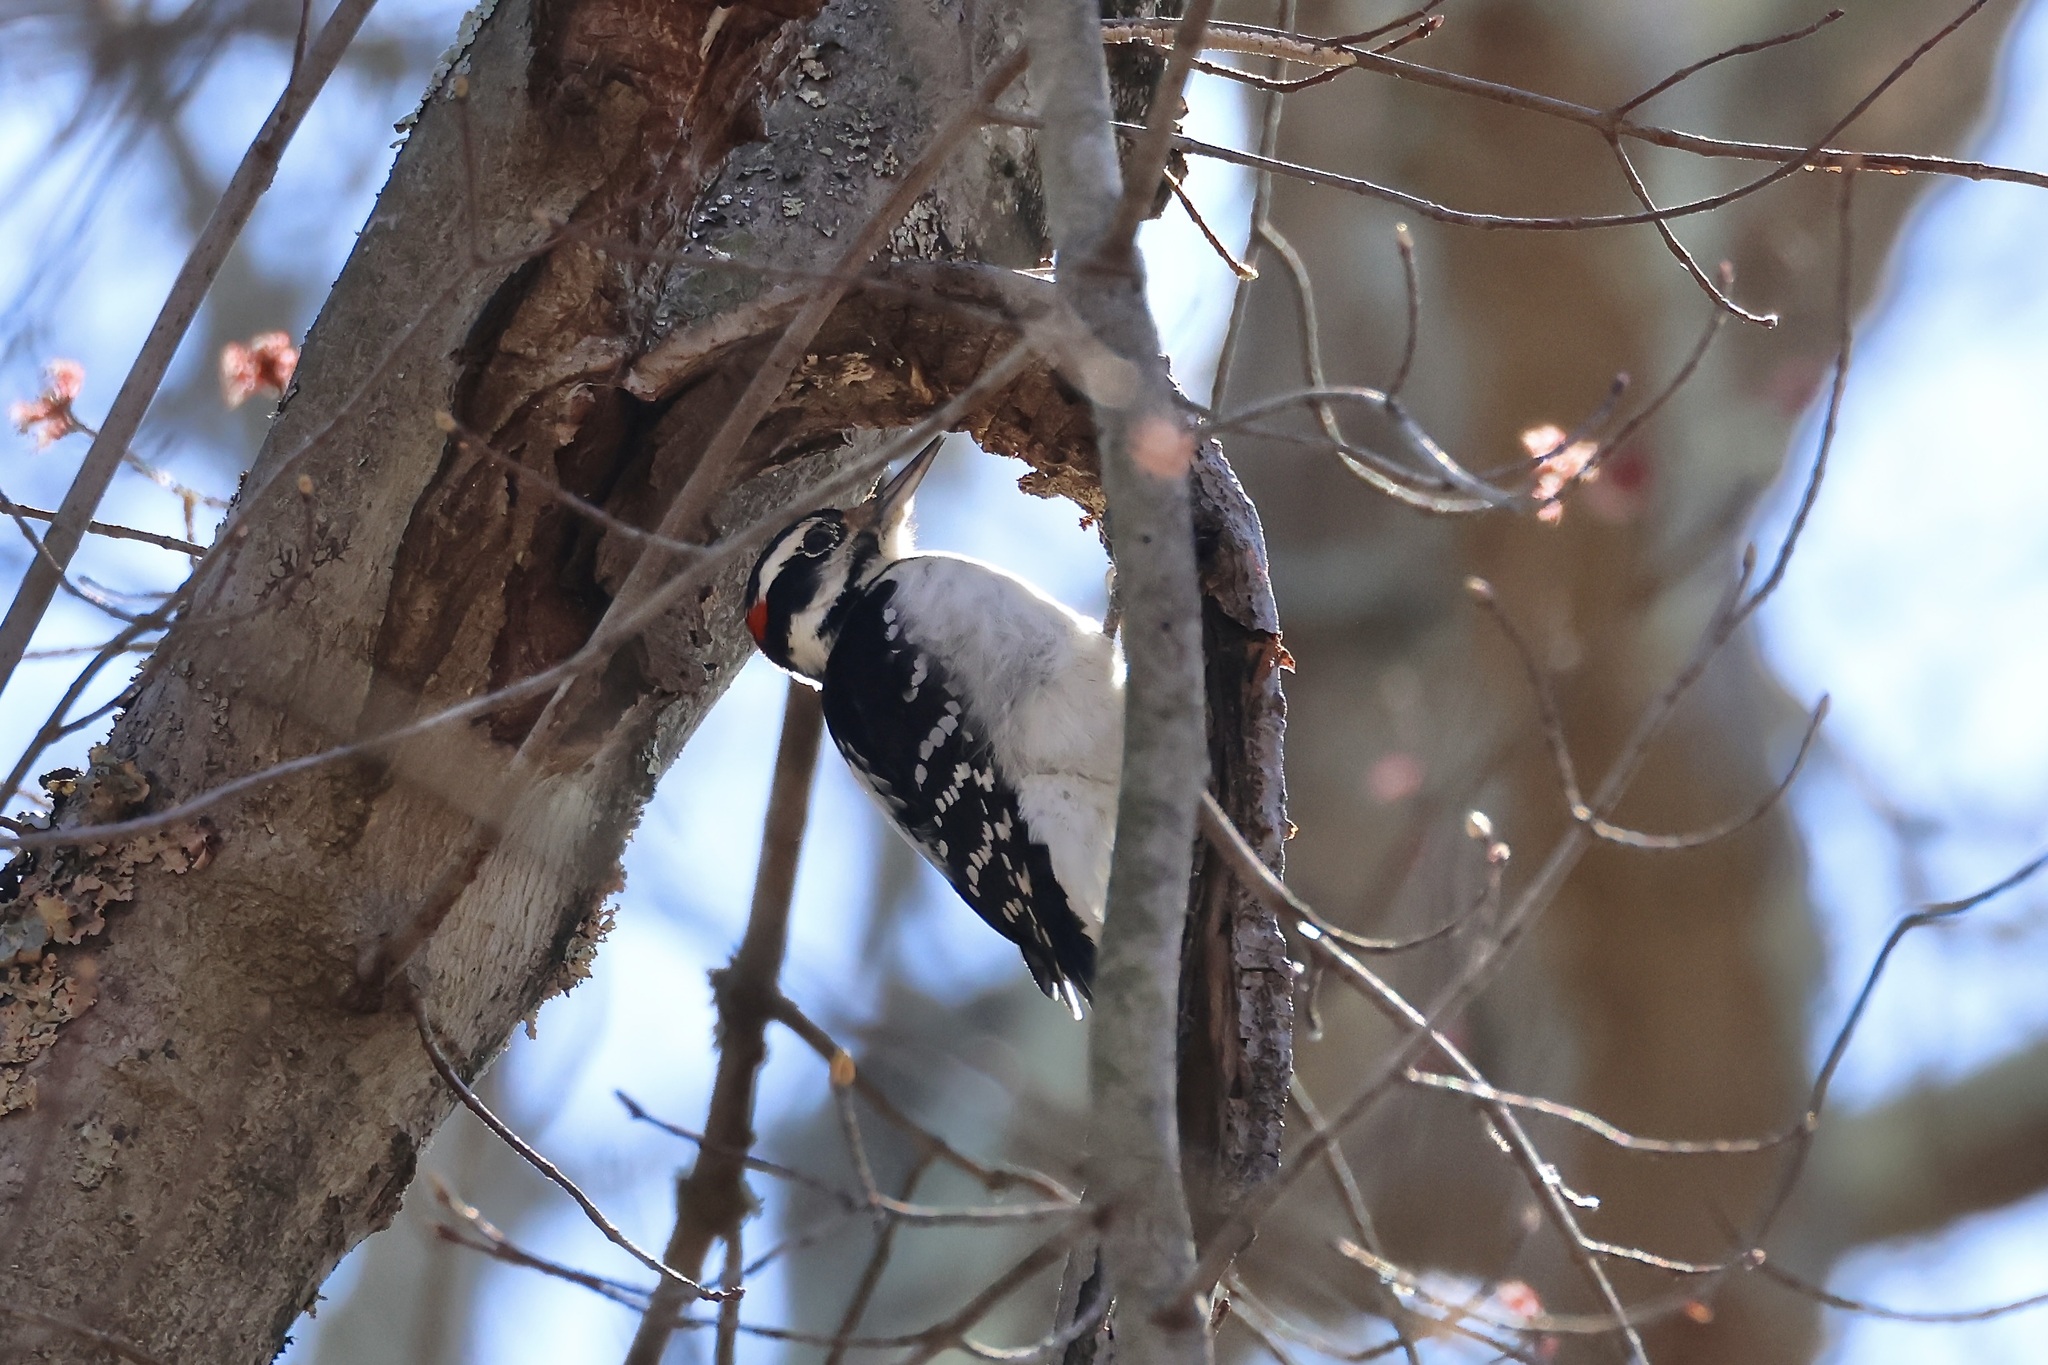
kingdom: Animalia
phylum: Chordata
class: Aves
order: Piciformes
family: Picidae
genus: Leuconotopicus
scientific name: Leuconotopicus villosus
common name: Hairy woodpecker
